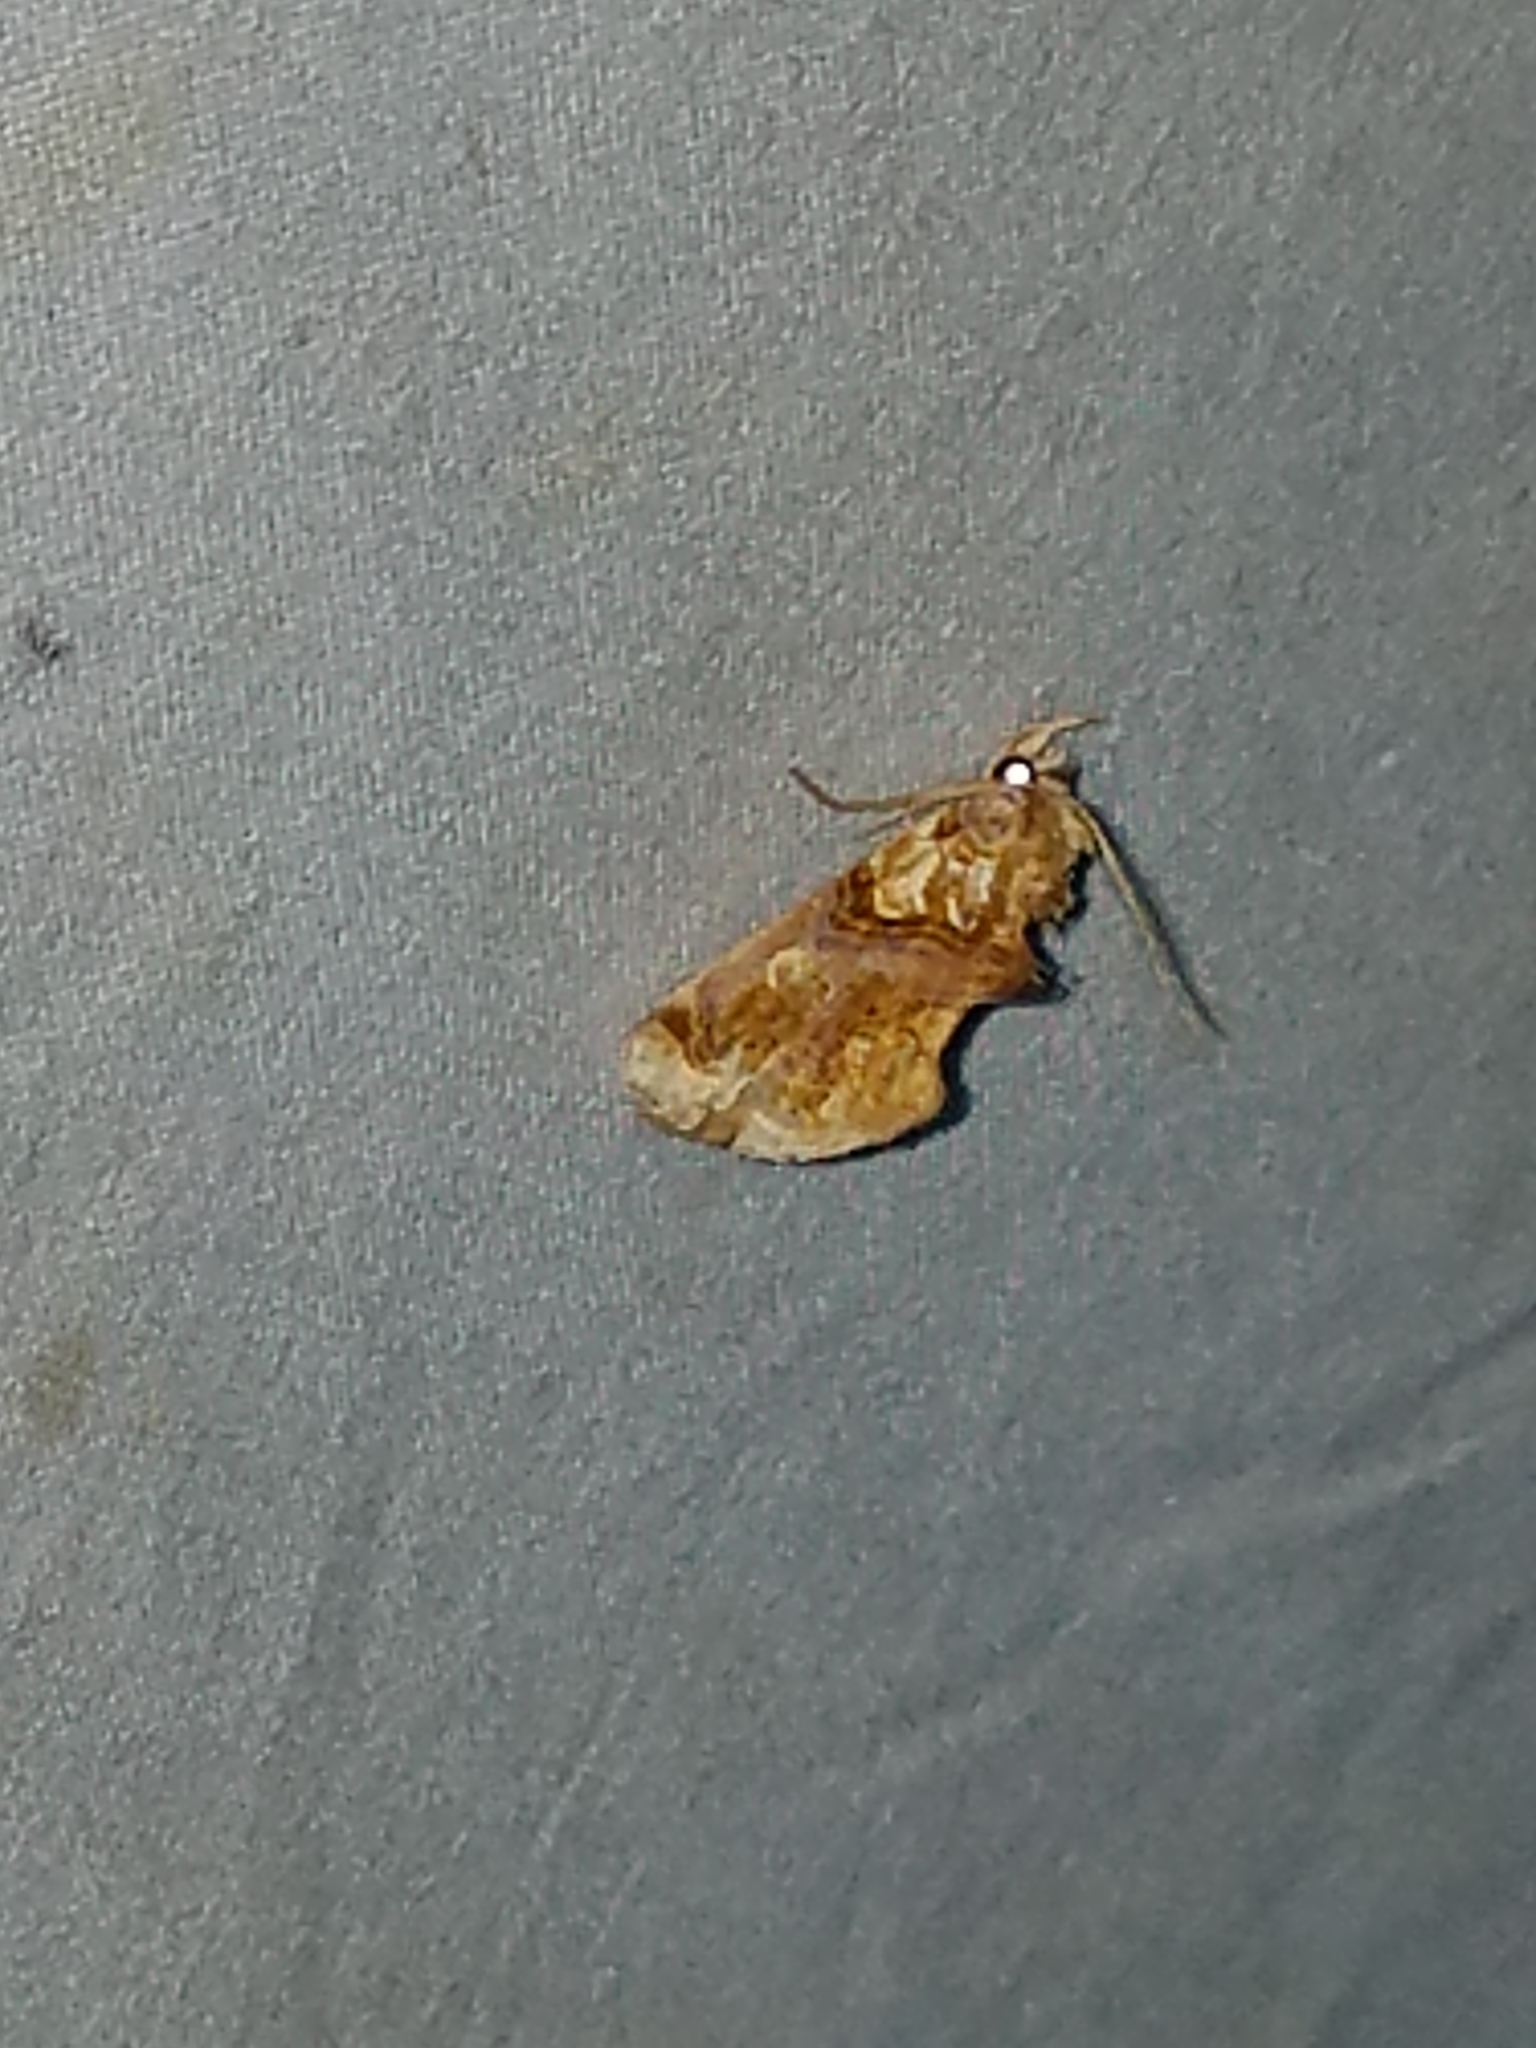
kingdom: Animalia
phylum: Arthropoda
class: Insecta
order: Lepidoptera
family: Erebidae
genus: Plusiodonta
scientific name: Plusiodonta compressipalpis
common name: Moonseed moth
